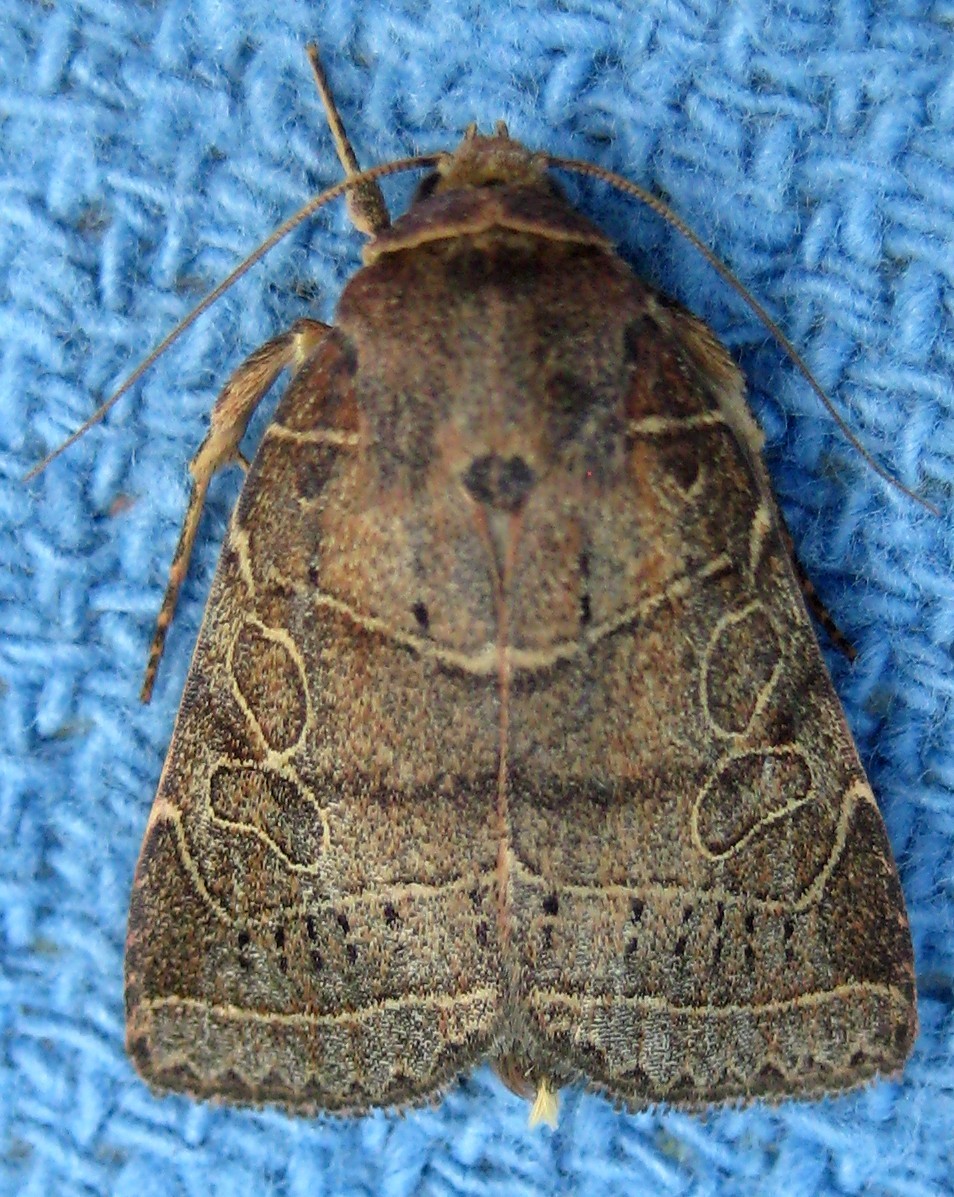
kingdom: Animalia
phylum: Arthropoda
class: Insecta
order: Lepidoptera
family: Noctuidae
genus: Orthodes
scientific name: Orthodes majuscula
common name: Rustic quaker
